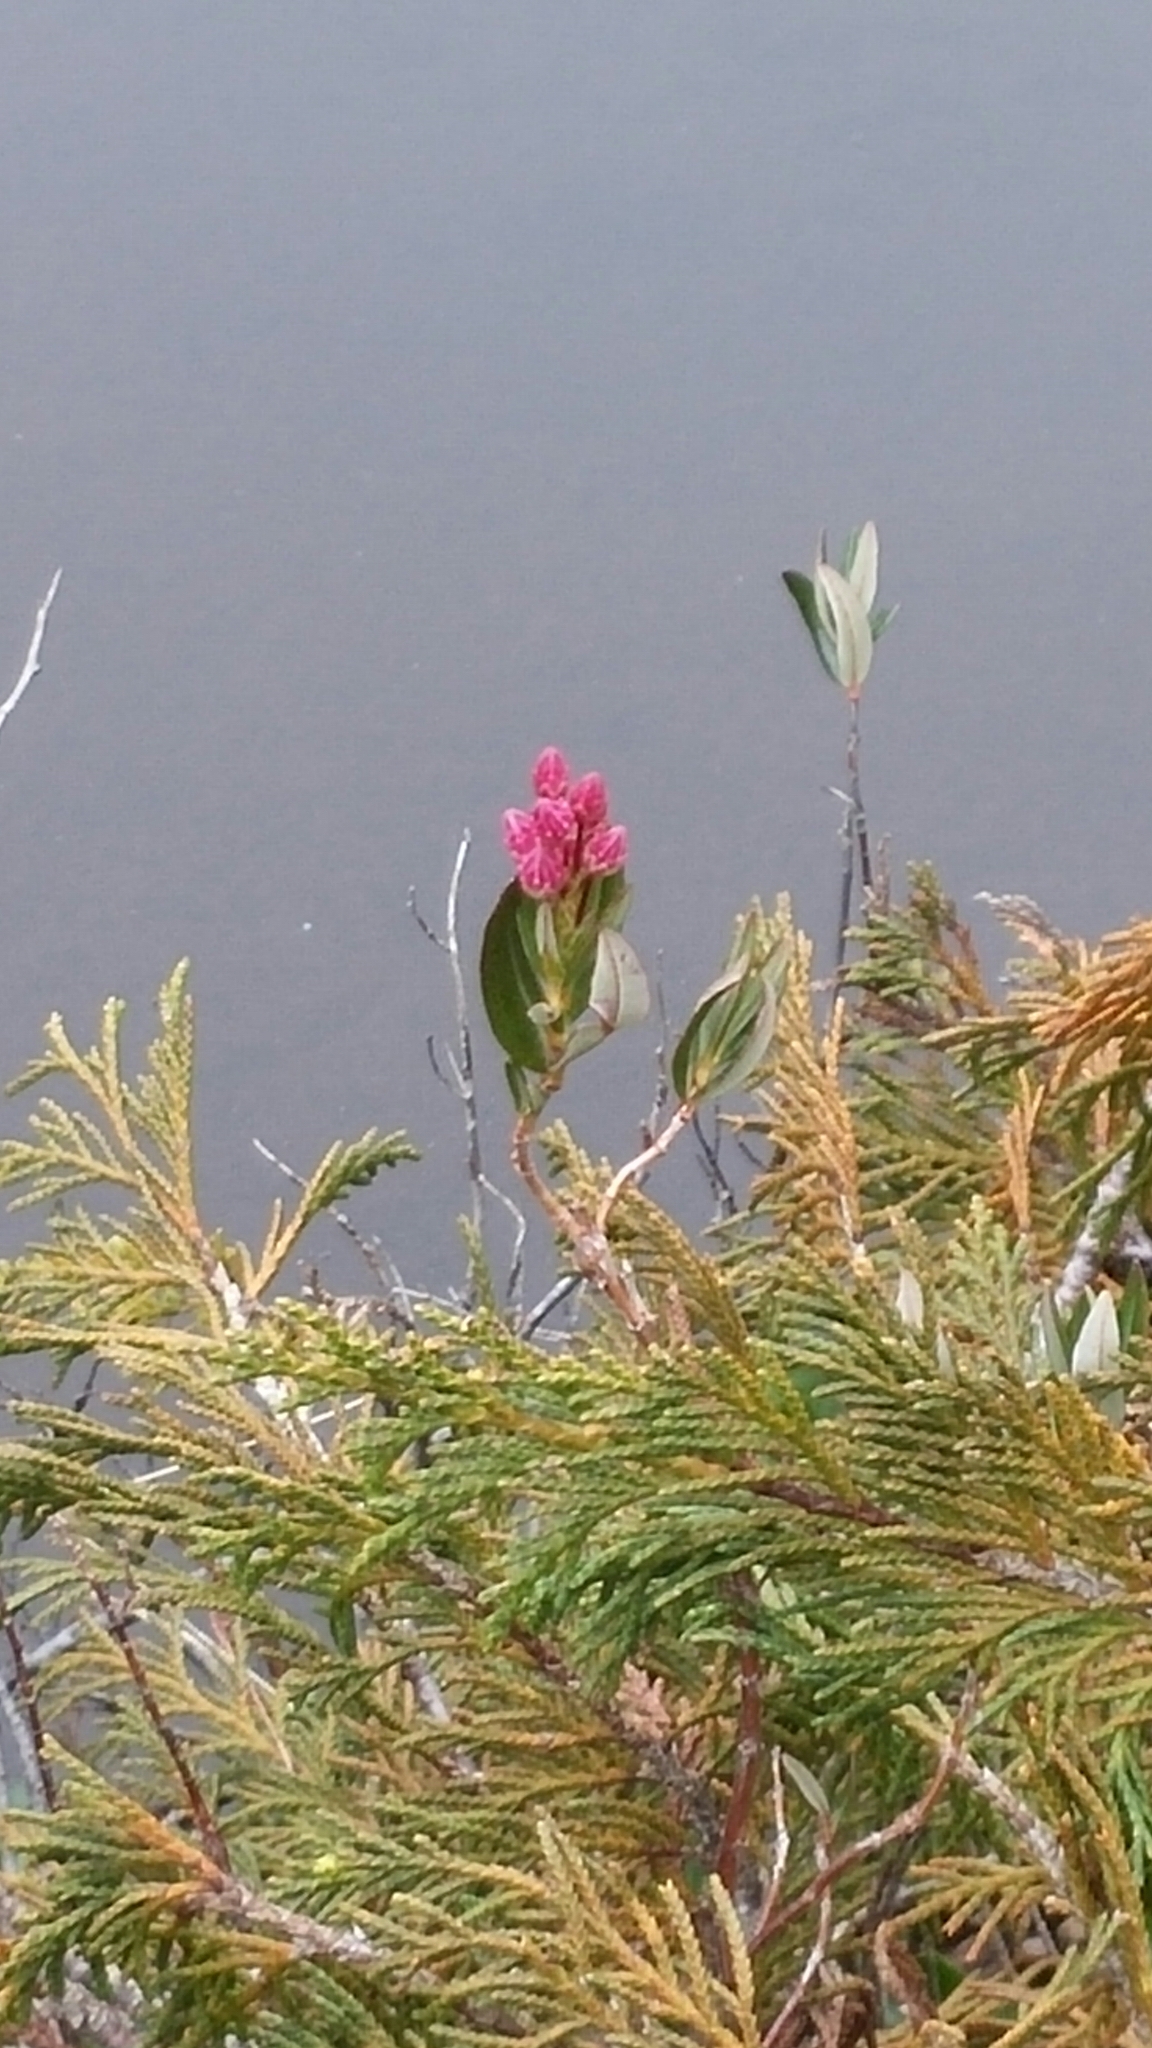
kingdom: Plantae
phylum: Tracheophyta
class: Magnoliopsida
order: Ericales
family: Ericaceae
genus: Kalmia
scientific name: Kalmia microphylla
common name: Alpine bog laurel
